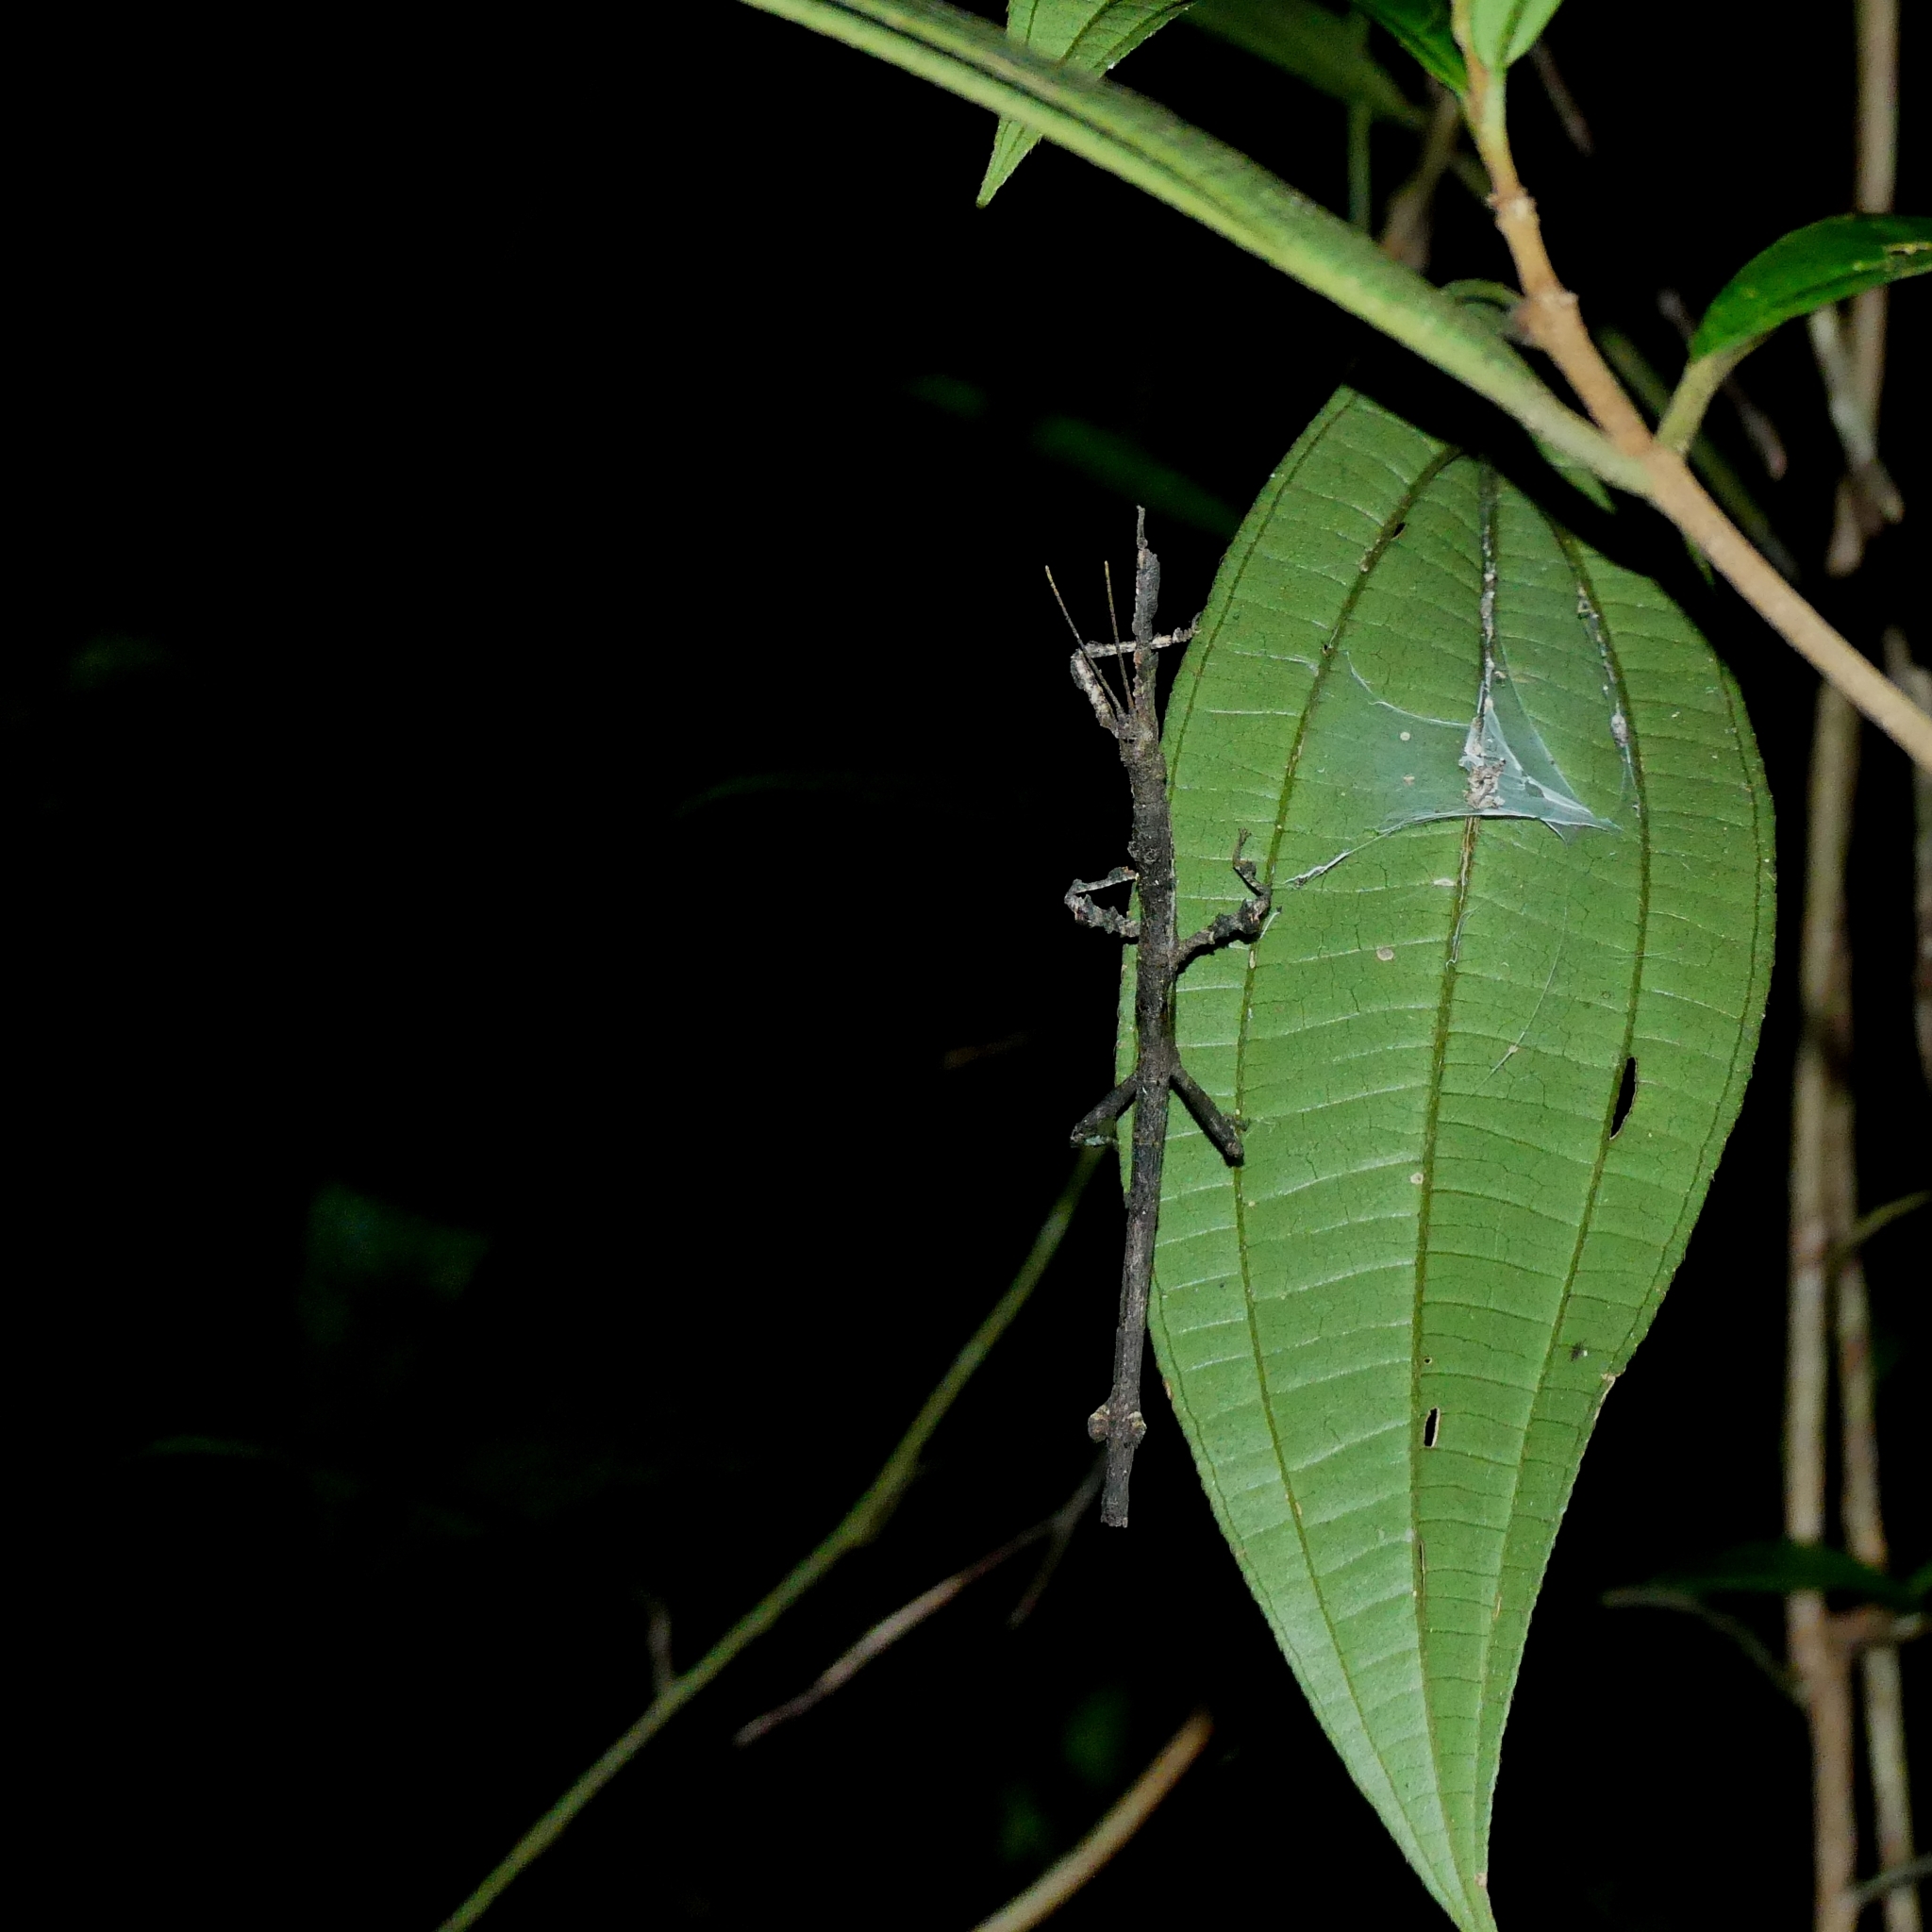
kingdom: Animalia
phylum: Arthropoda
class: Insecta
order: Phasmida
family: Phasmatidae
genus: Pterinoxylus
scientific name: Pterinoxylus eucnemis
